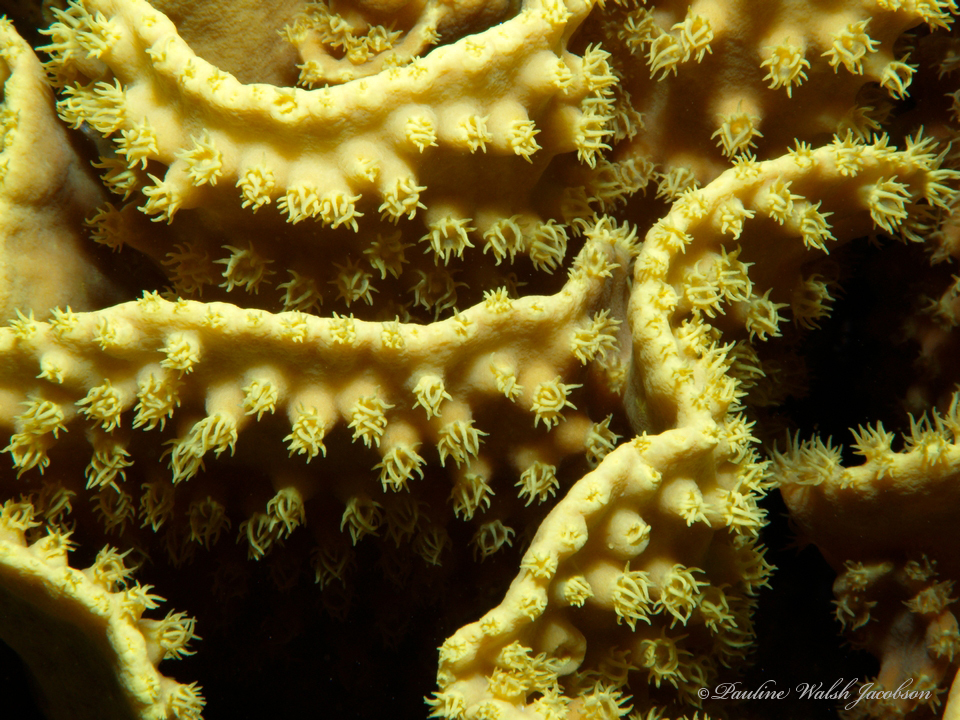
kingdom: Animalia
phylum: Cnidaria
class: Anthozoa
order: Scleractinia
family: Dendrophylliidae
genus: Turbinaria
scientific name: Turbinaria reniformis
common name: Disc coral
